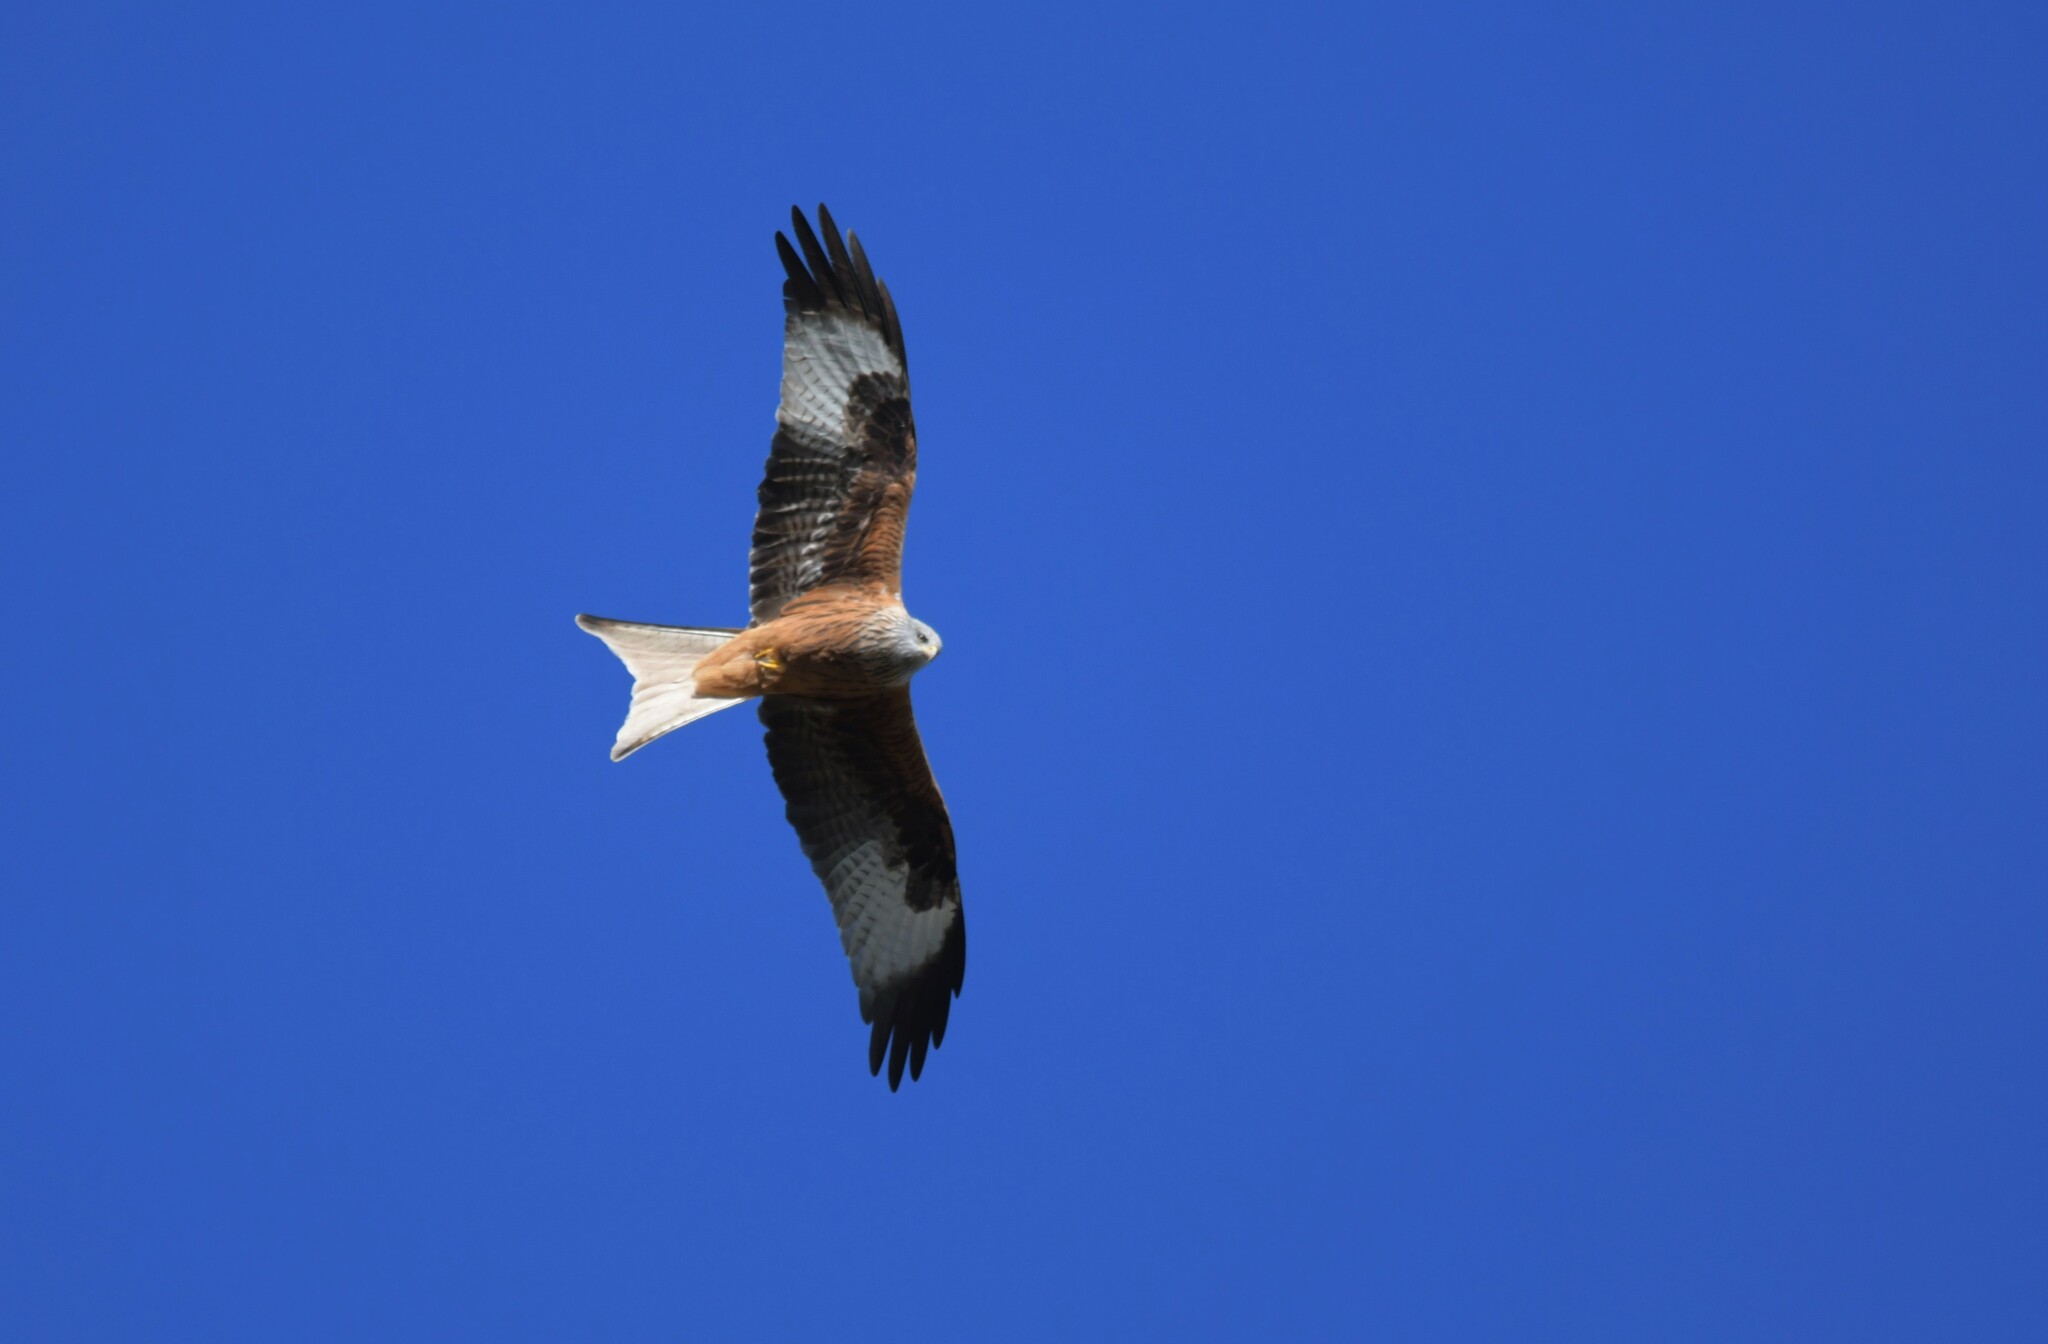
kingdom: Animalia
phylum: Chordata
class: Aves
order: Accipitriformes
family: Accipitridae
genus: Milvus
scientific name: Milvus milvus
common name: Red kite
